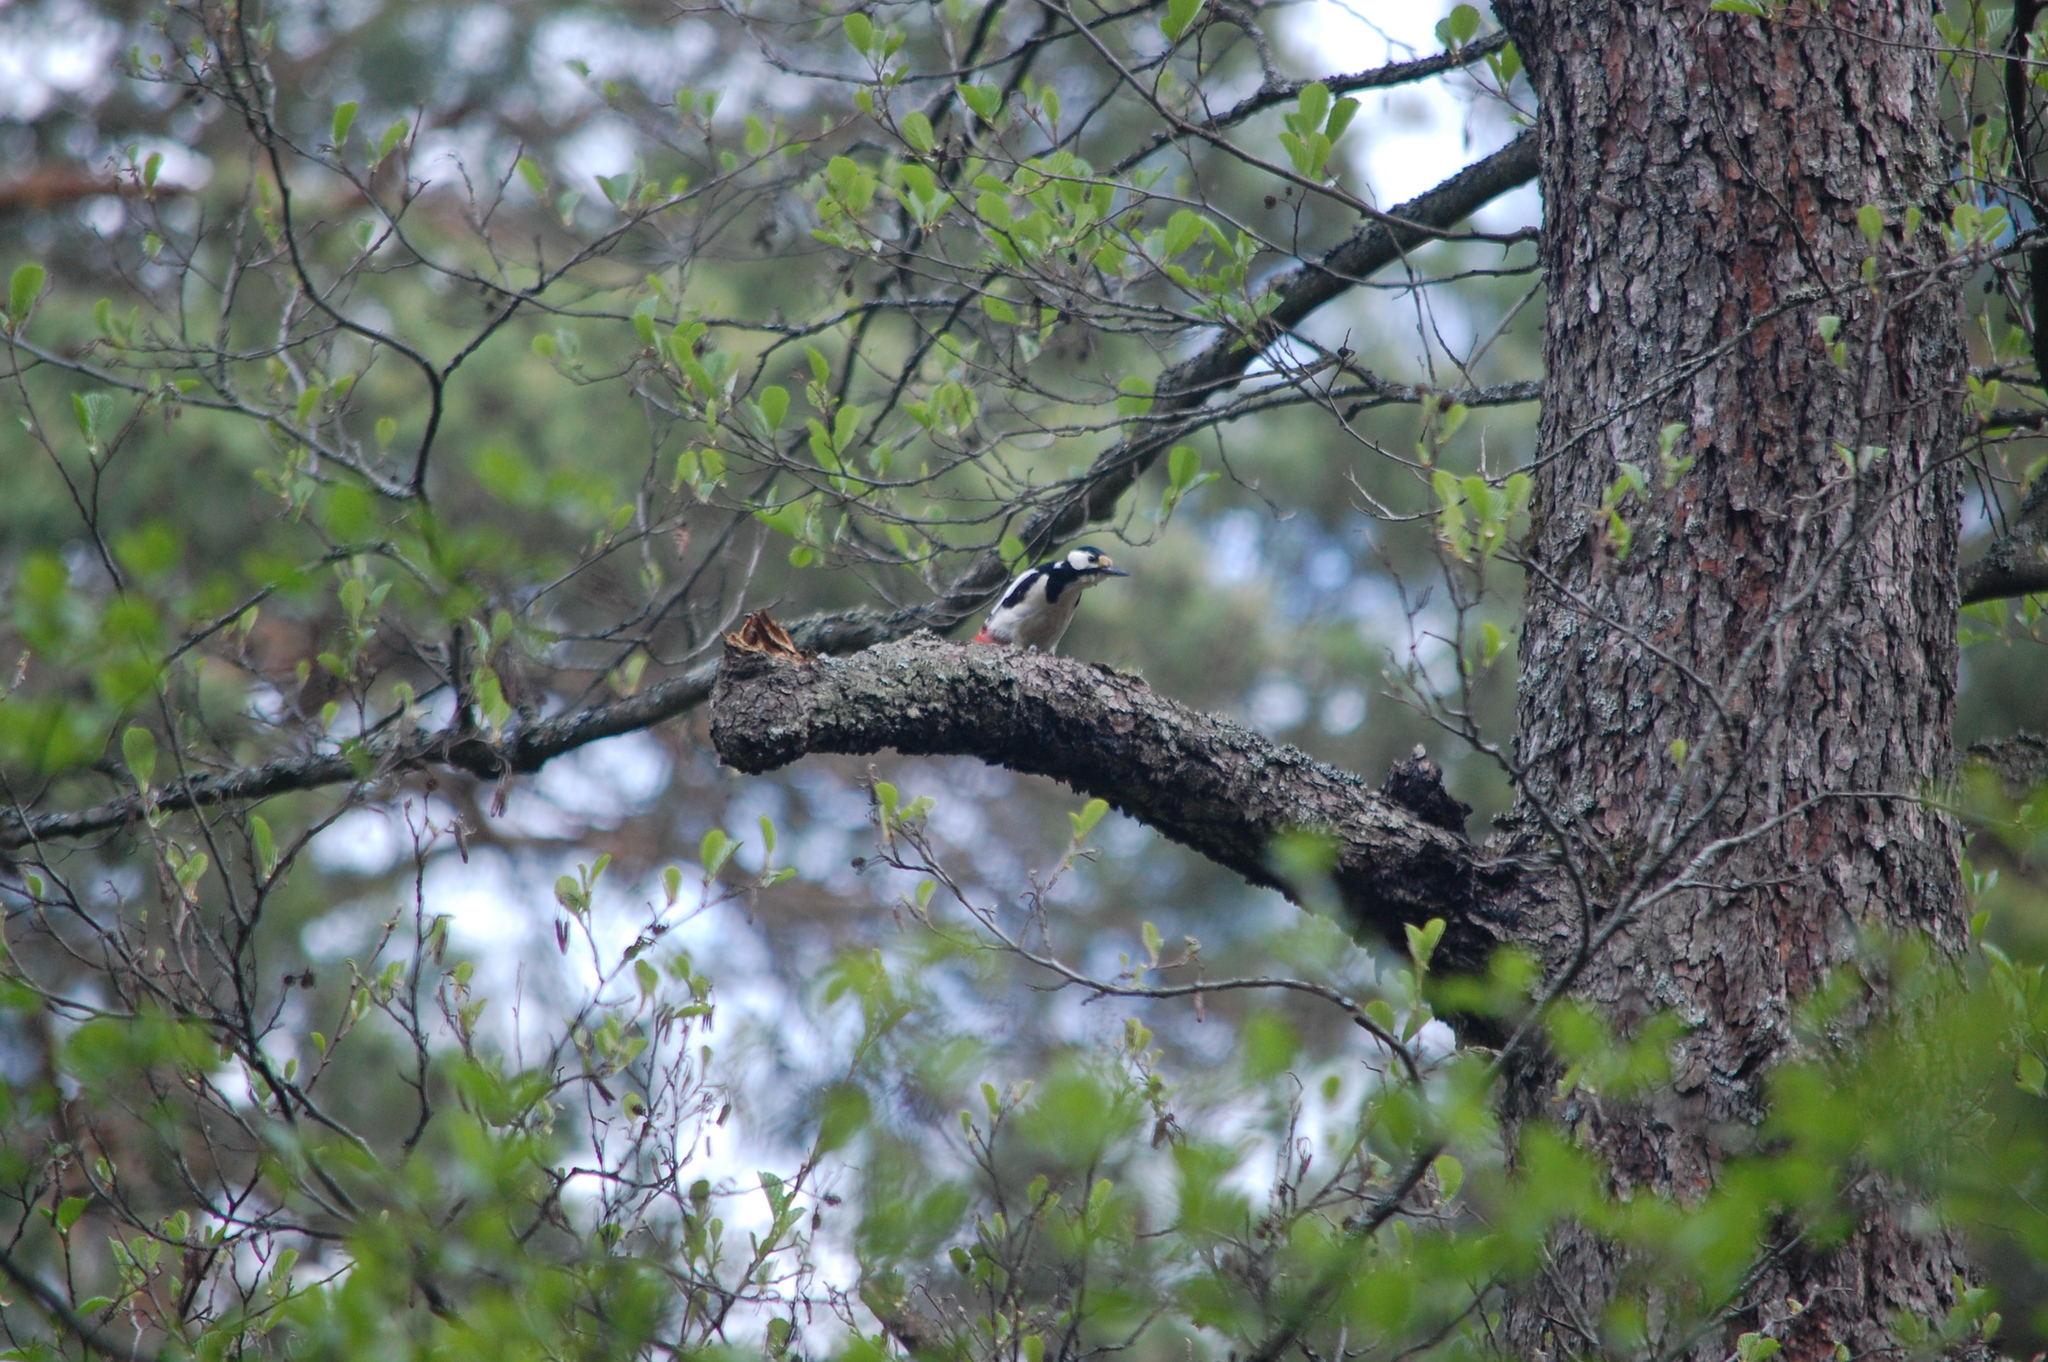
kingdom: Animalia
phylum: Chordata
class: Aves
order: Piciformes
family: Picidae
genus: Dendrocopos
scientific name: Dendrocopos major
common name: Great spotted woodpecker
